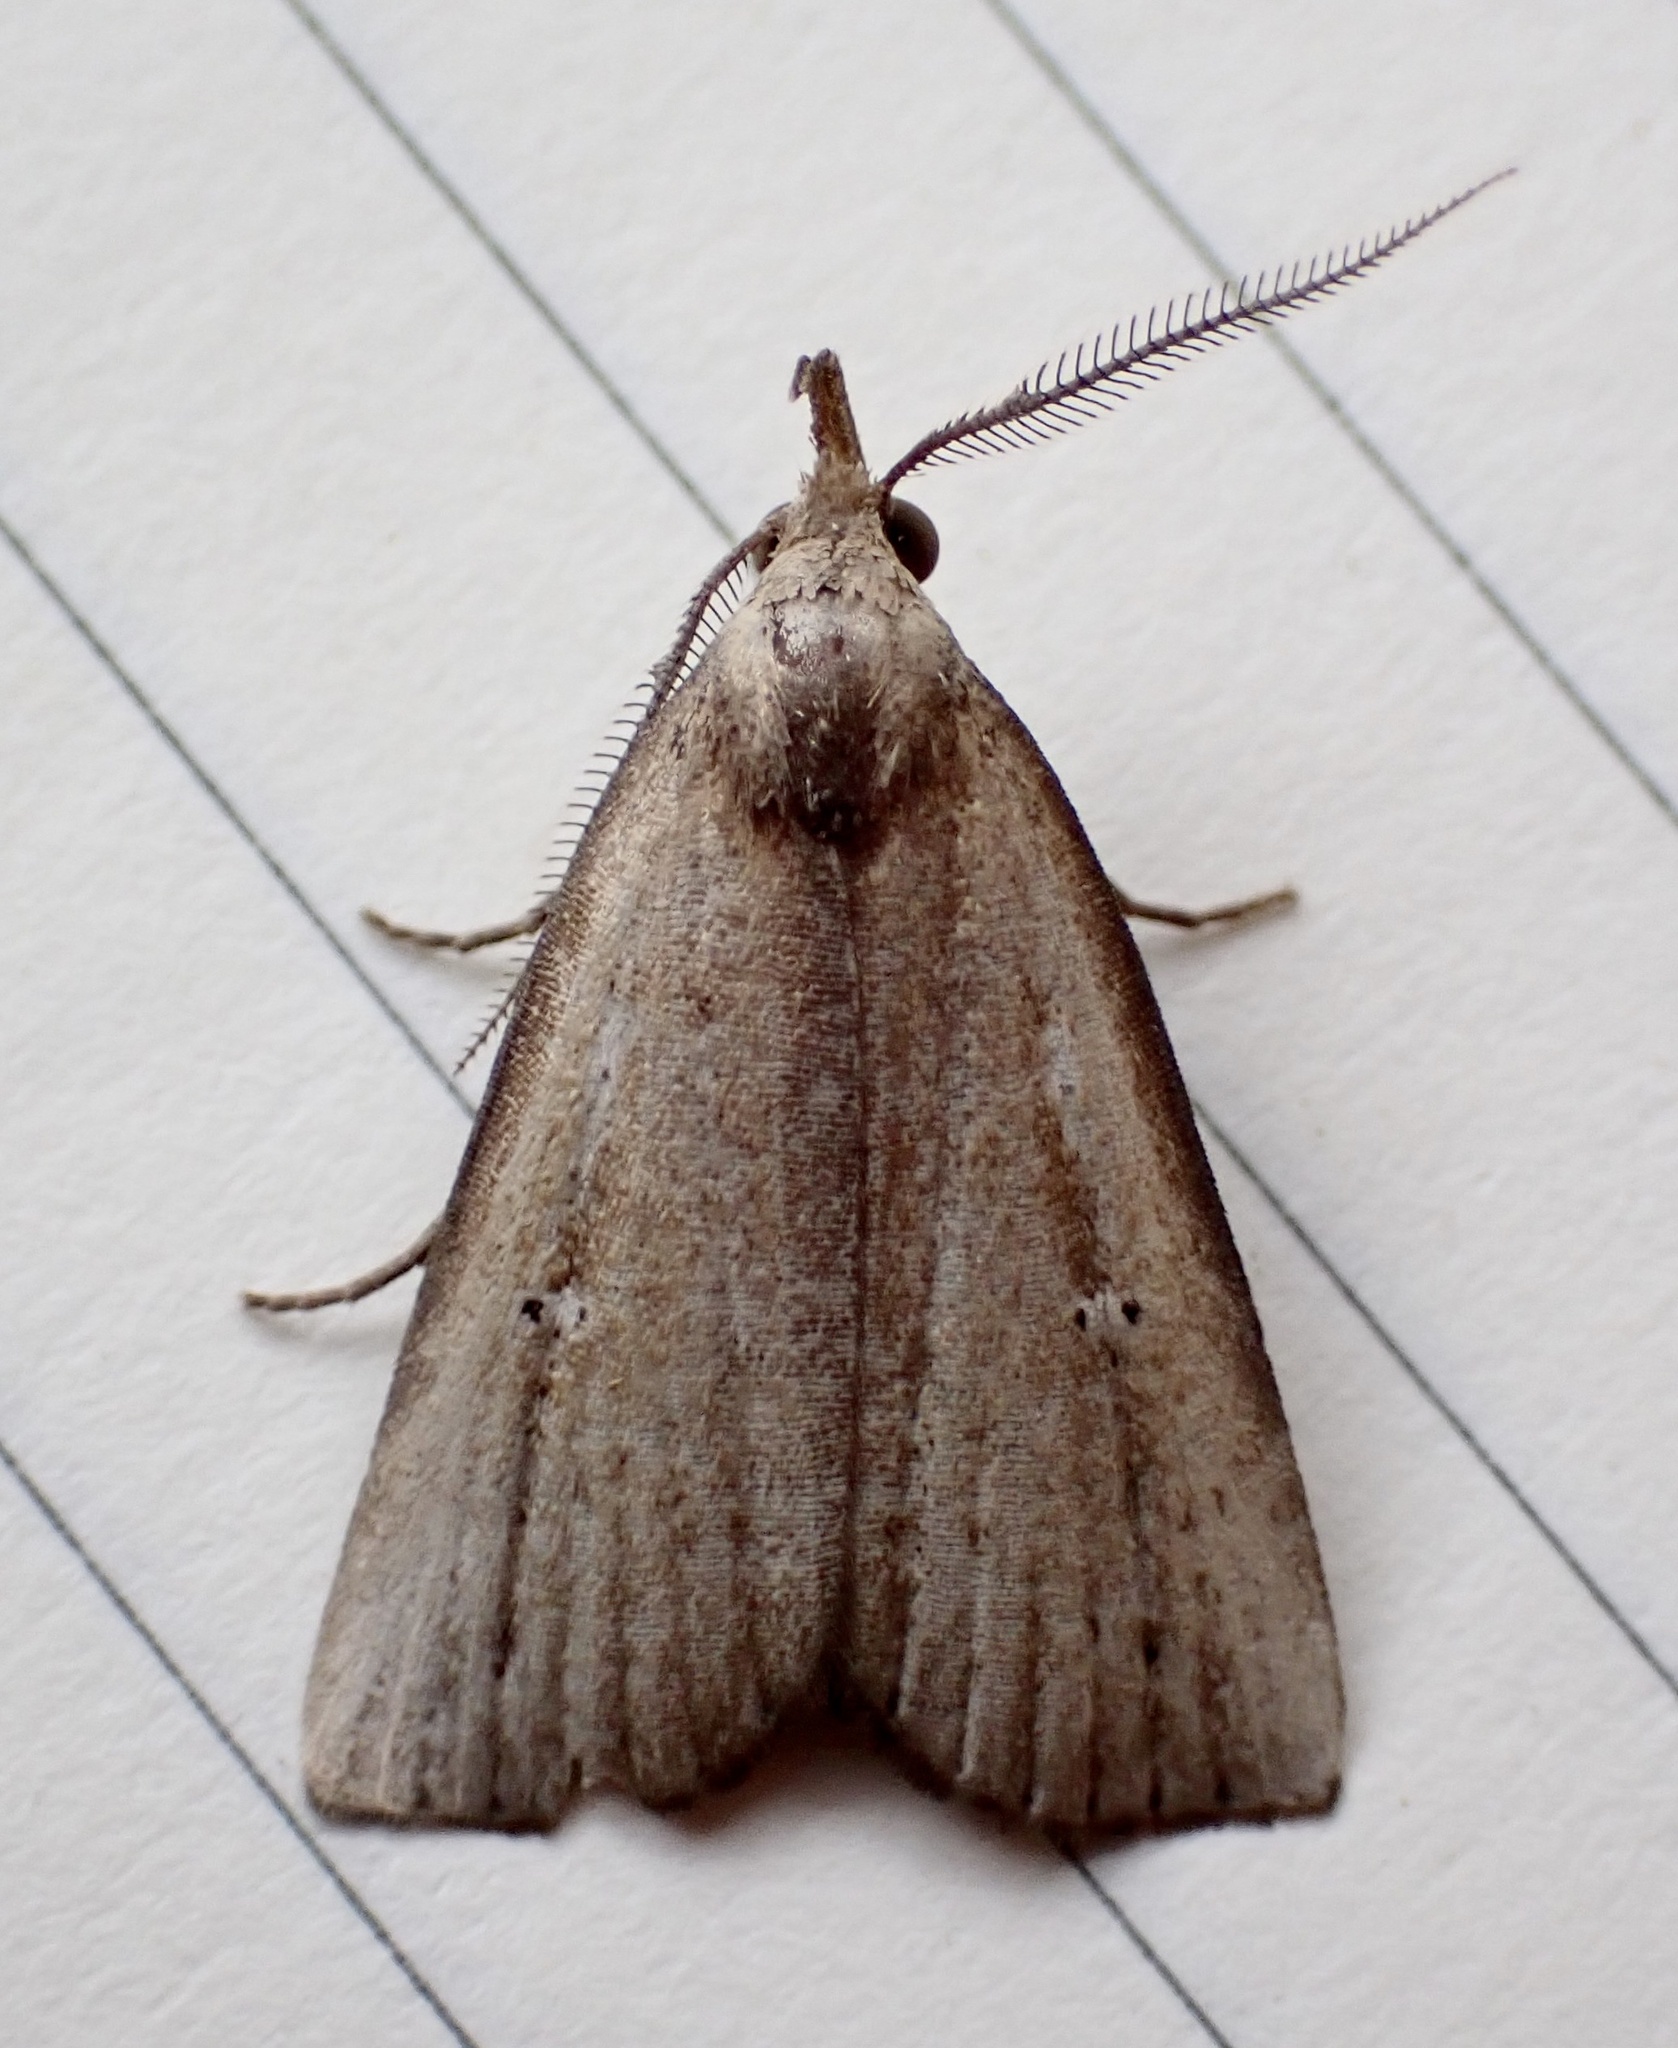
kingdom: Animalia
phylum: Arthropoda
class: Insecta
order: Lepidoptera
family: Erebidae
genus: Macrochilo
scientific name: Macrochilo orciferalis
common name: Bronzy owlet
